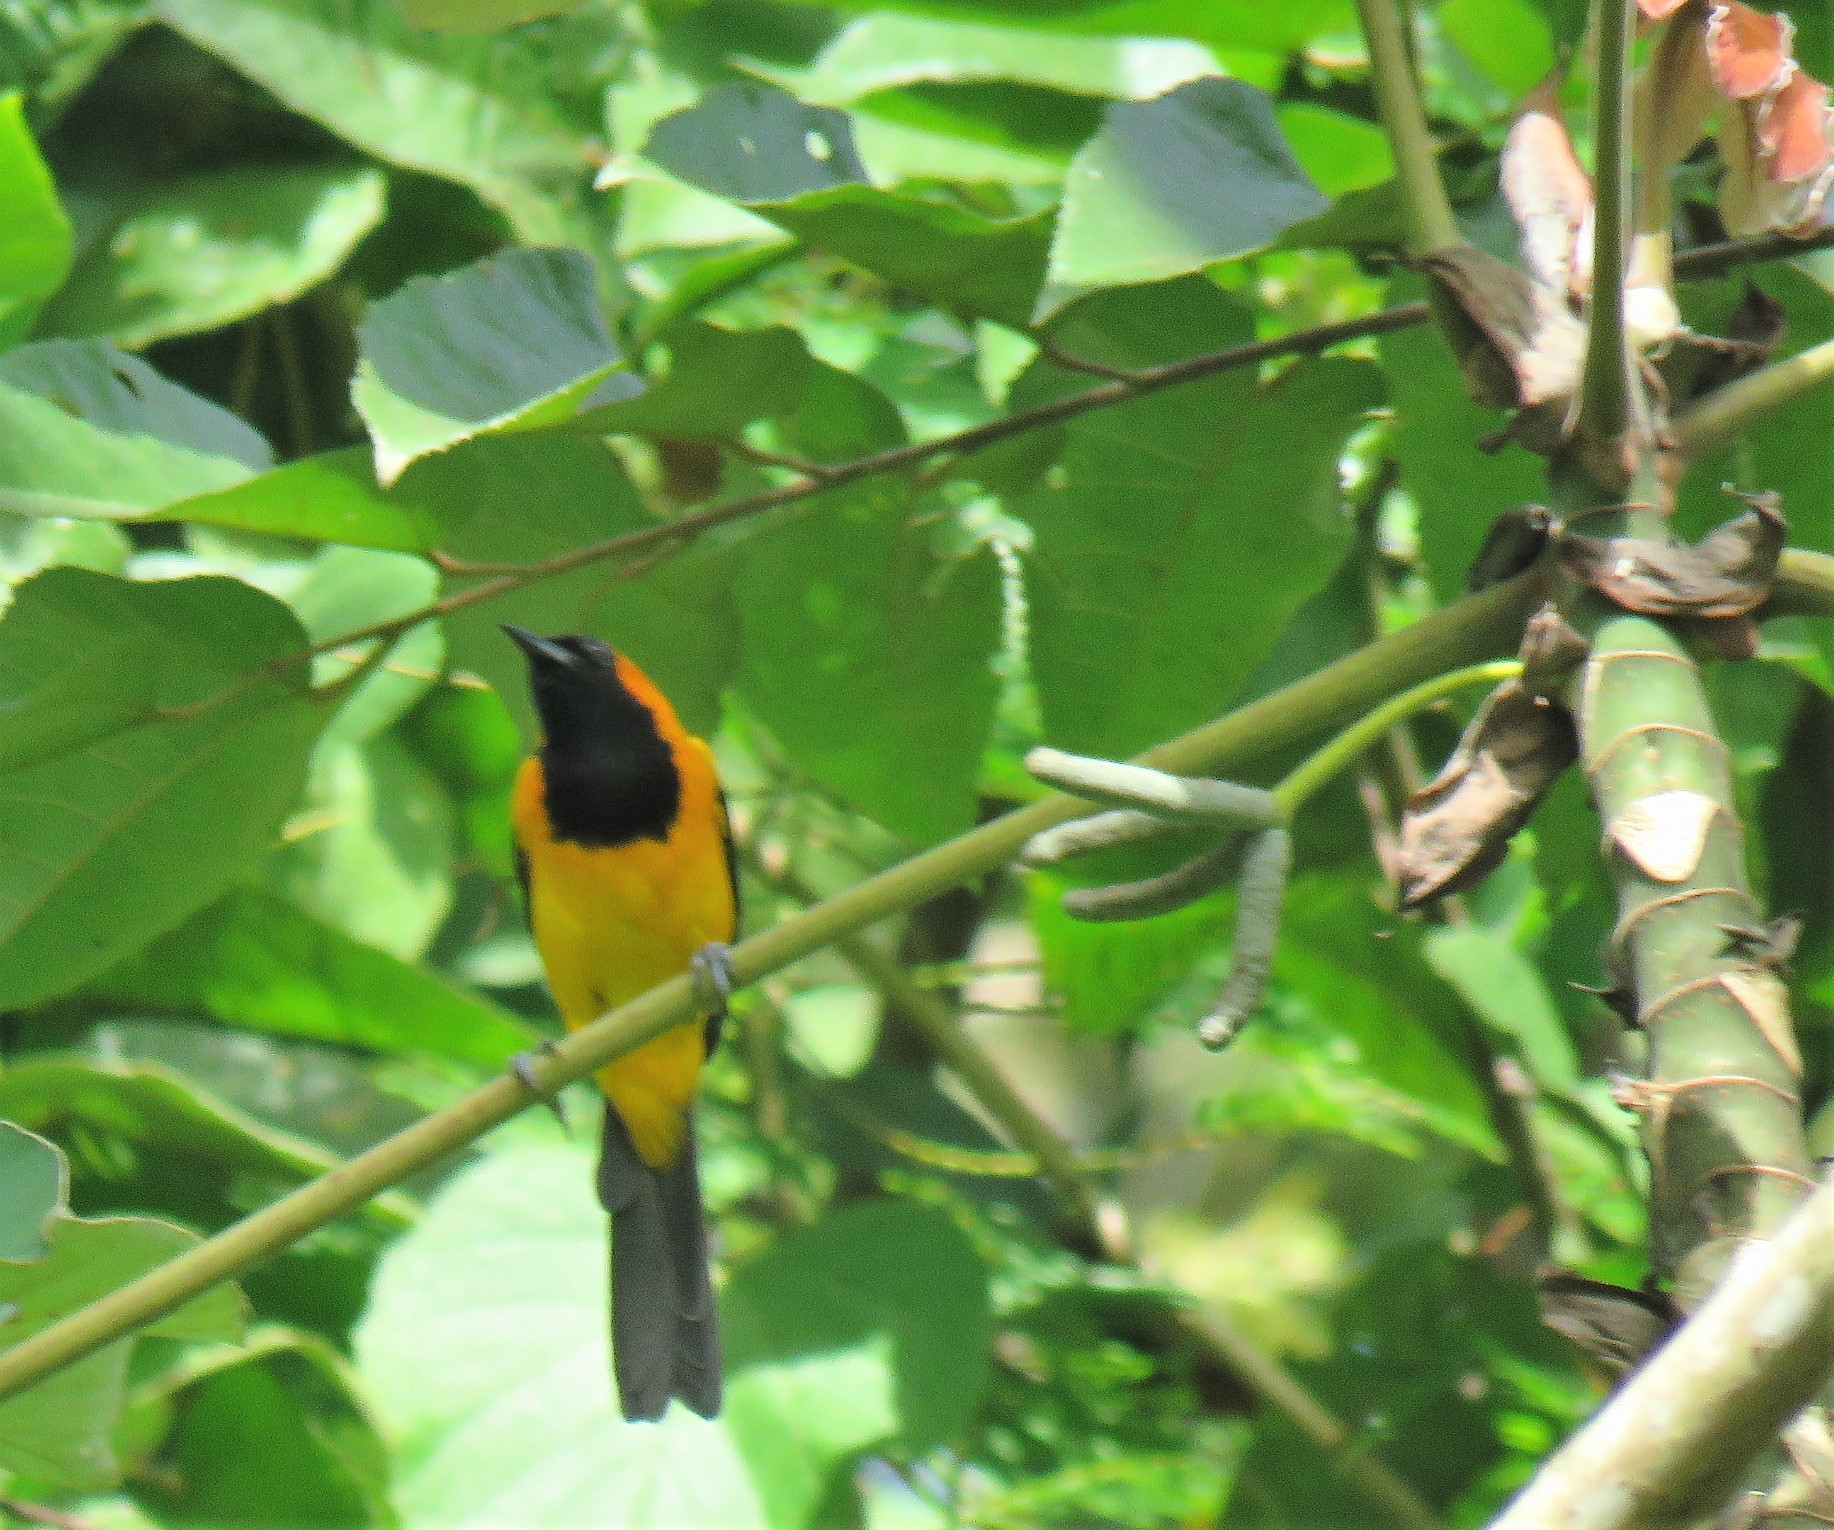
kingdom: Animalia
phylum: Chordata
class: Aves
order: Passeriformes
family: Icteridae
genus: Icterus
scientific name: Icterus auricapillus
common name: Orange-crowned oriole
